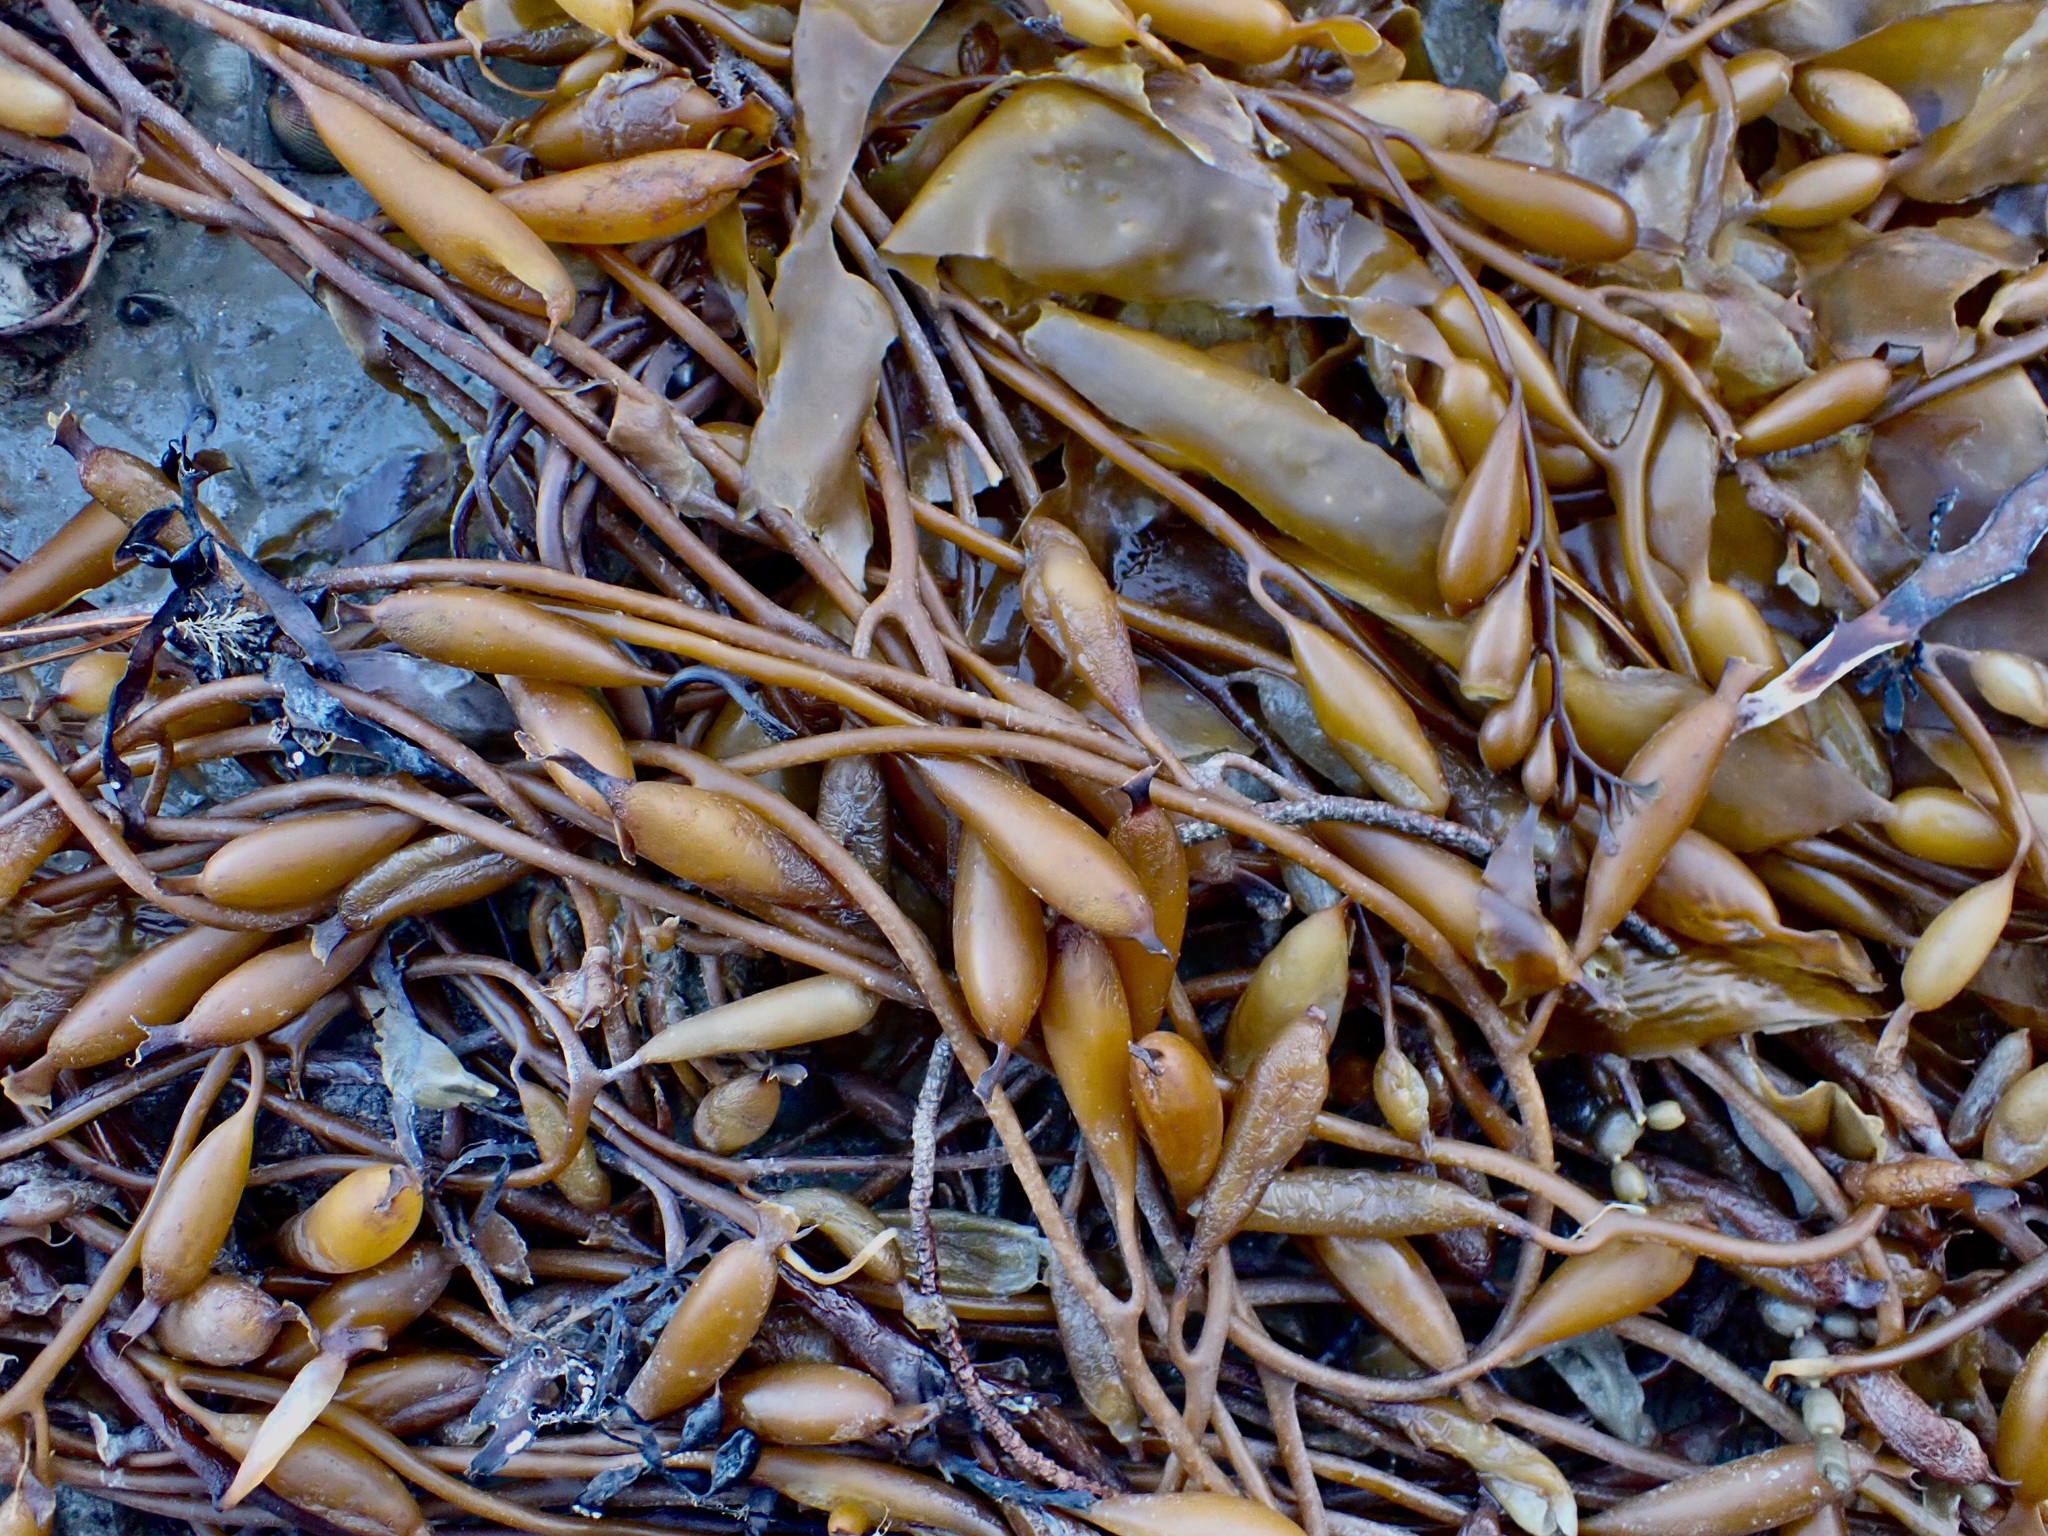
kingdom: Chromista
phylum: Ochrophyta
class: Phaeophyceae
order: Laminariales
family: Laminariaceae
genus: Macrocystis
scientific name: Macrocystis pyrifera
